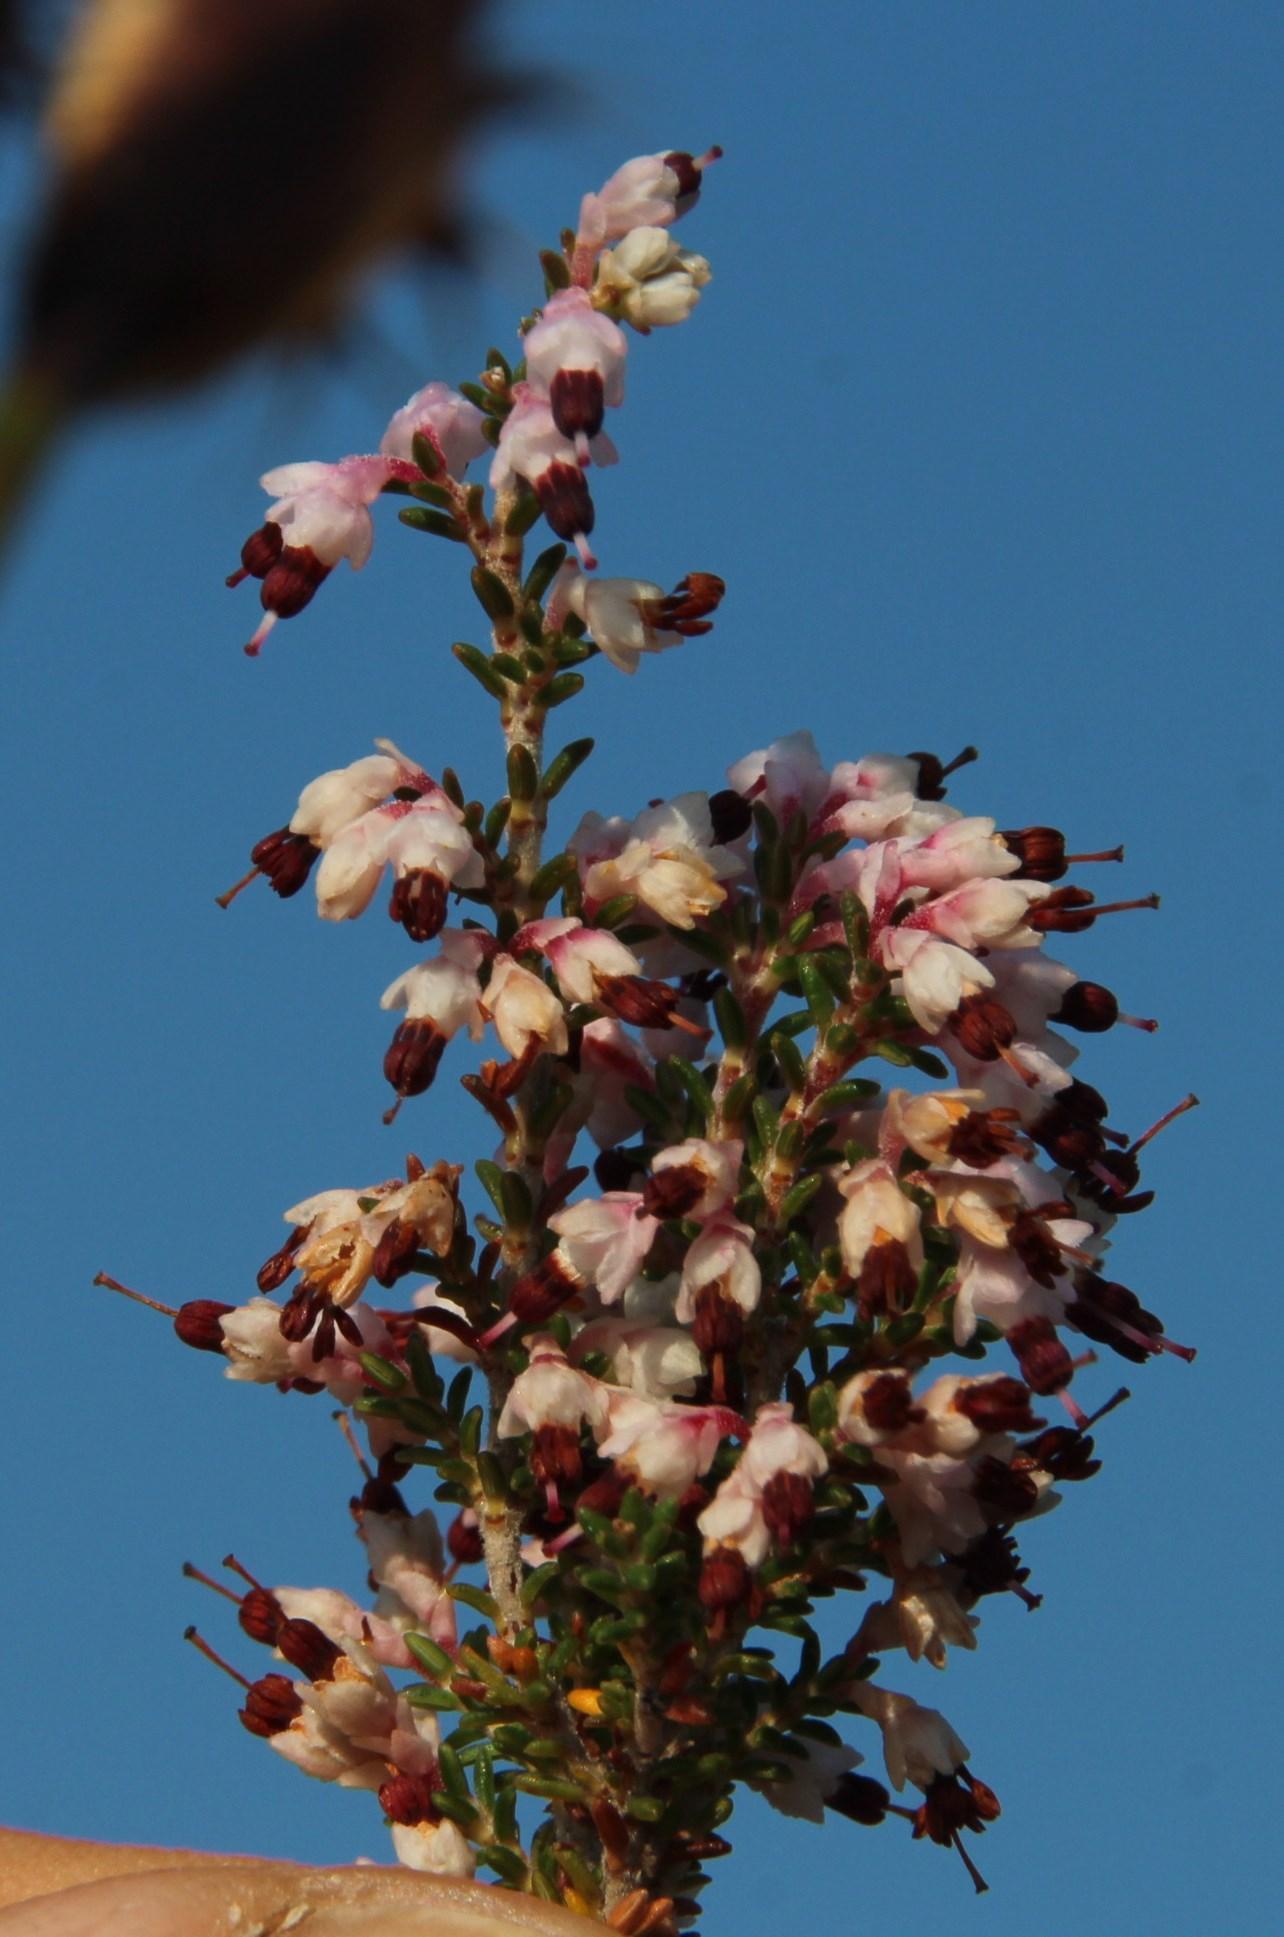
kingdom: Plantae
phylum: Tracheophyta
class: Magnoliopsida
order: Ericales
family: Ericaceae
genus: Erica
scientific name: Erica imbricata
